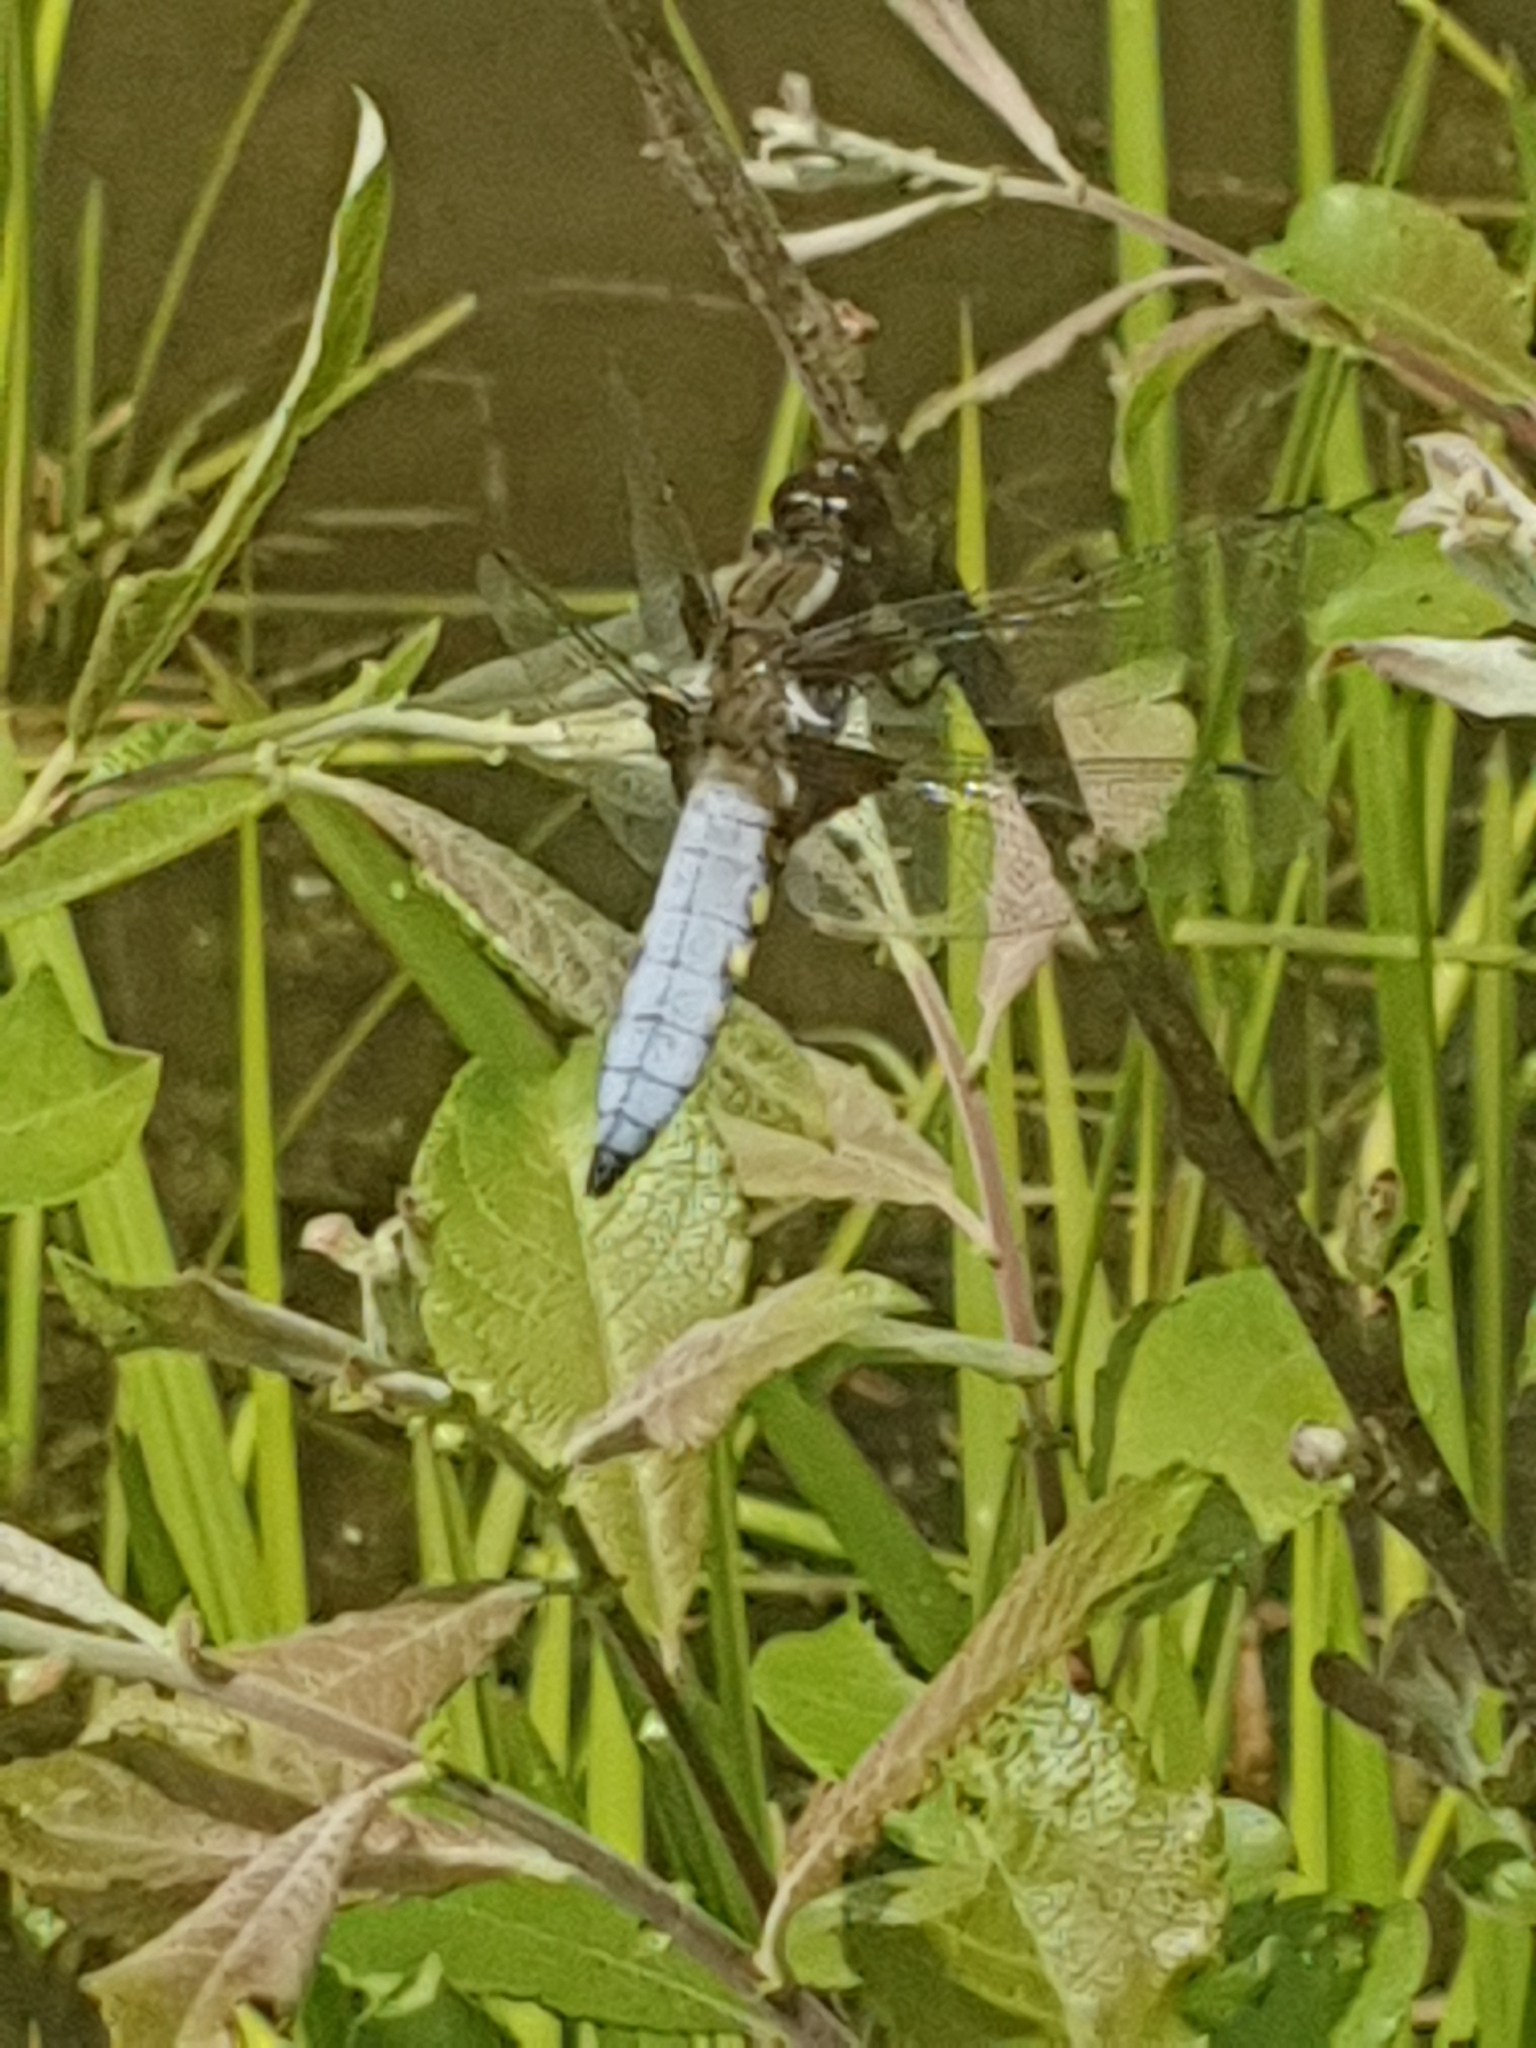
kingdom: Animalia
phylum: Arthropoda
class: Insecta
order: Odonata
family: Libellulidae
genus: Libellula
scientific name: Libellula depressa
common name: Broad-bodied chaser
